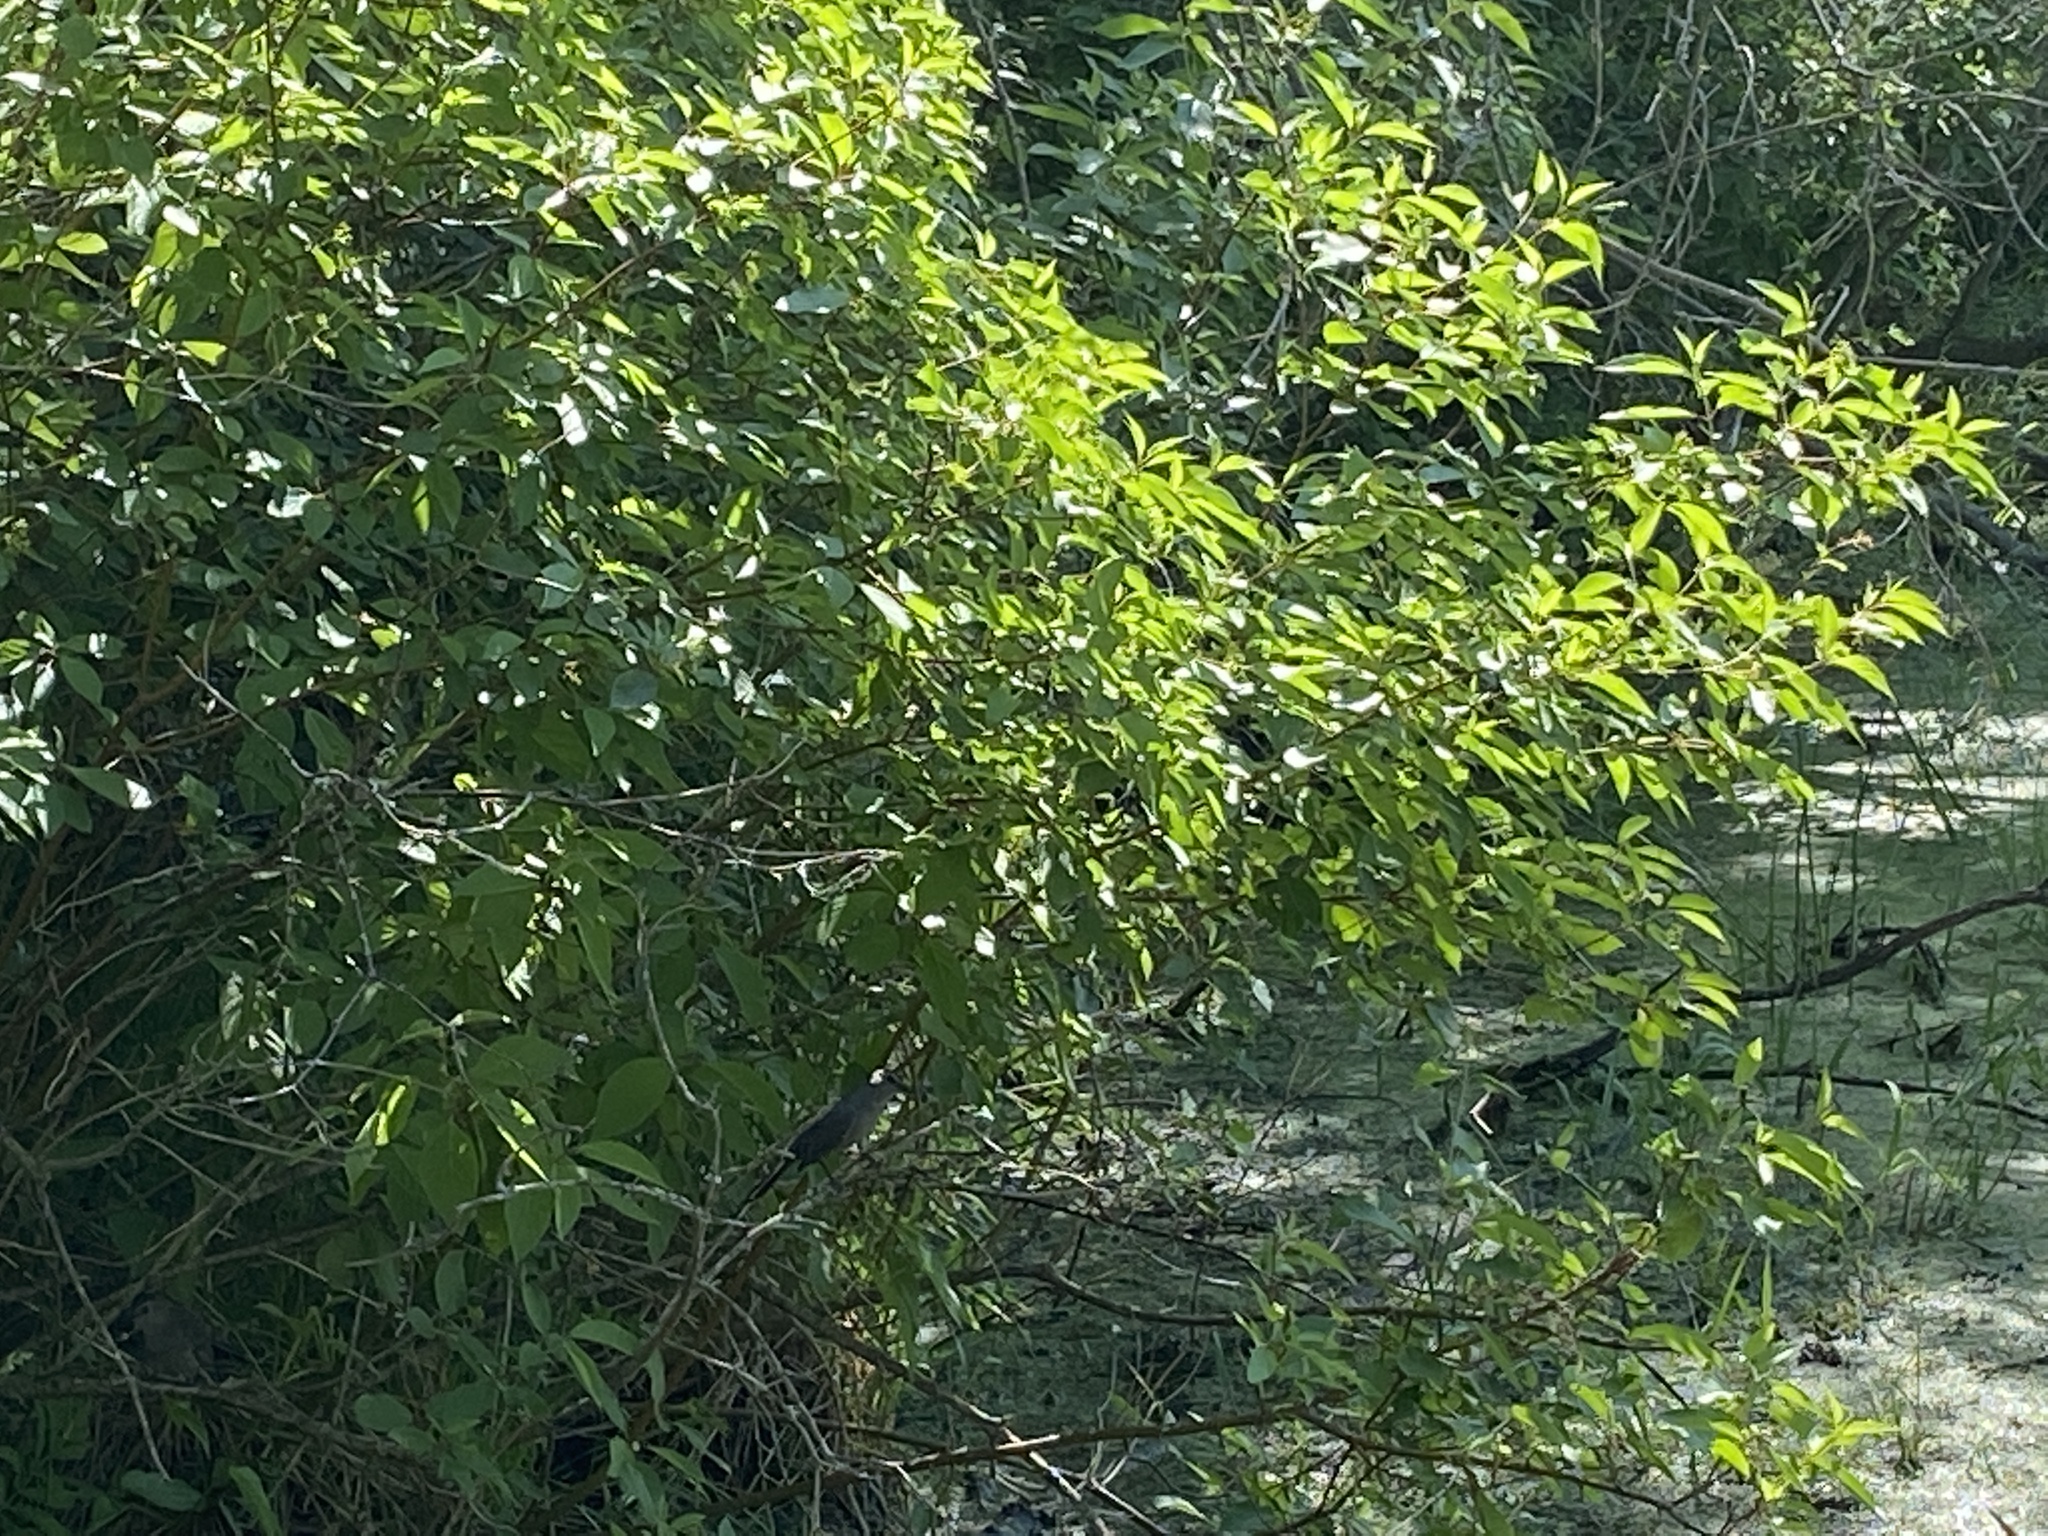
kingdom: Animalia
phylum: Chordata
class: Aves
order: Passeriformes
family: Mimidae
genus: Dumetella
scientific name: Dumetella carolinensis
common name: Gray catbird
